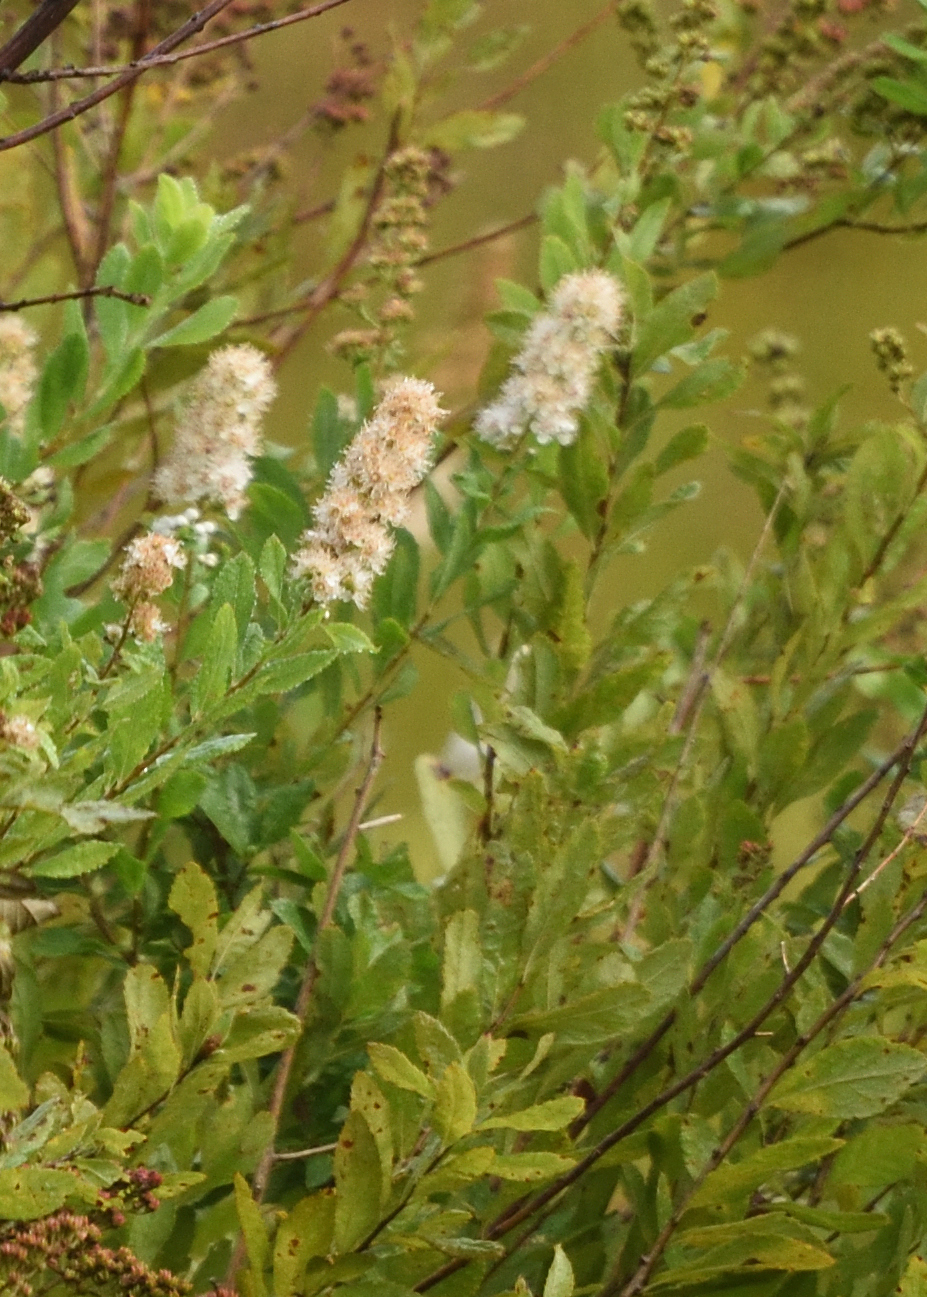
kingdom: Plantae
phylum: Tracheophyta
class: Magnoliopsida
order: Rosales
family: Rosaceae
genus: Spiraea
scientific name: Spiraea alba
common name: Pale bridewort
